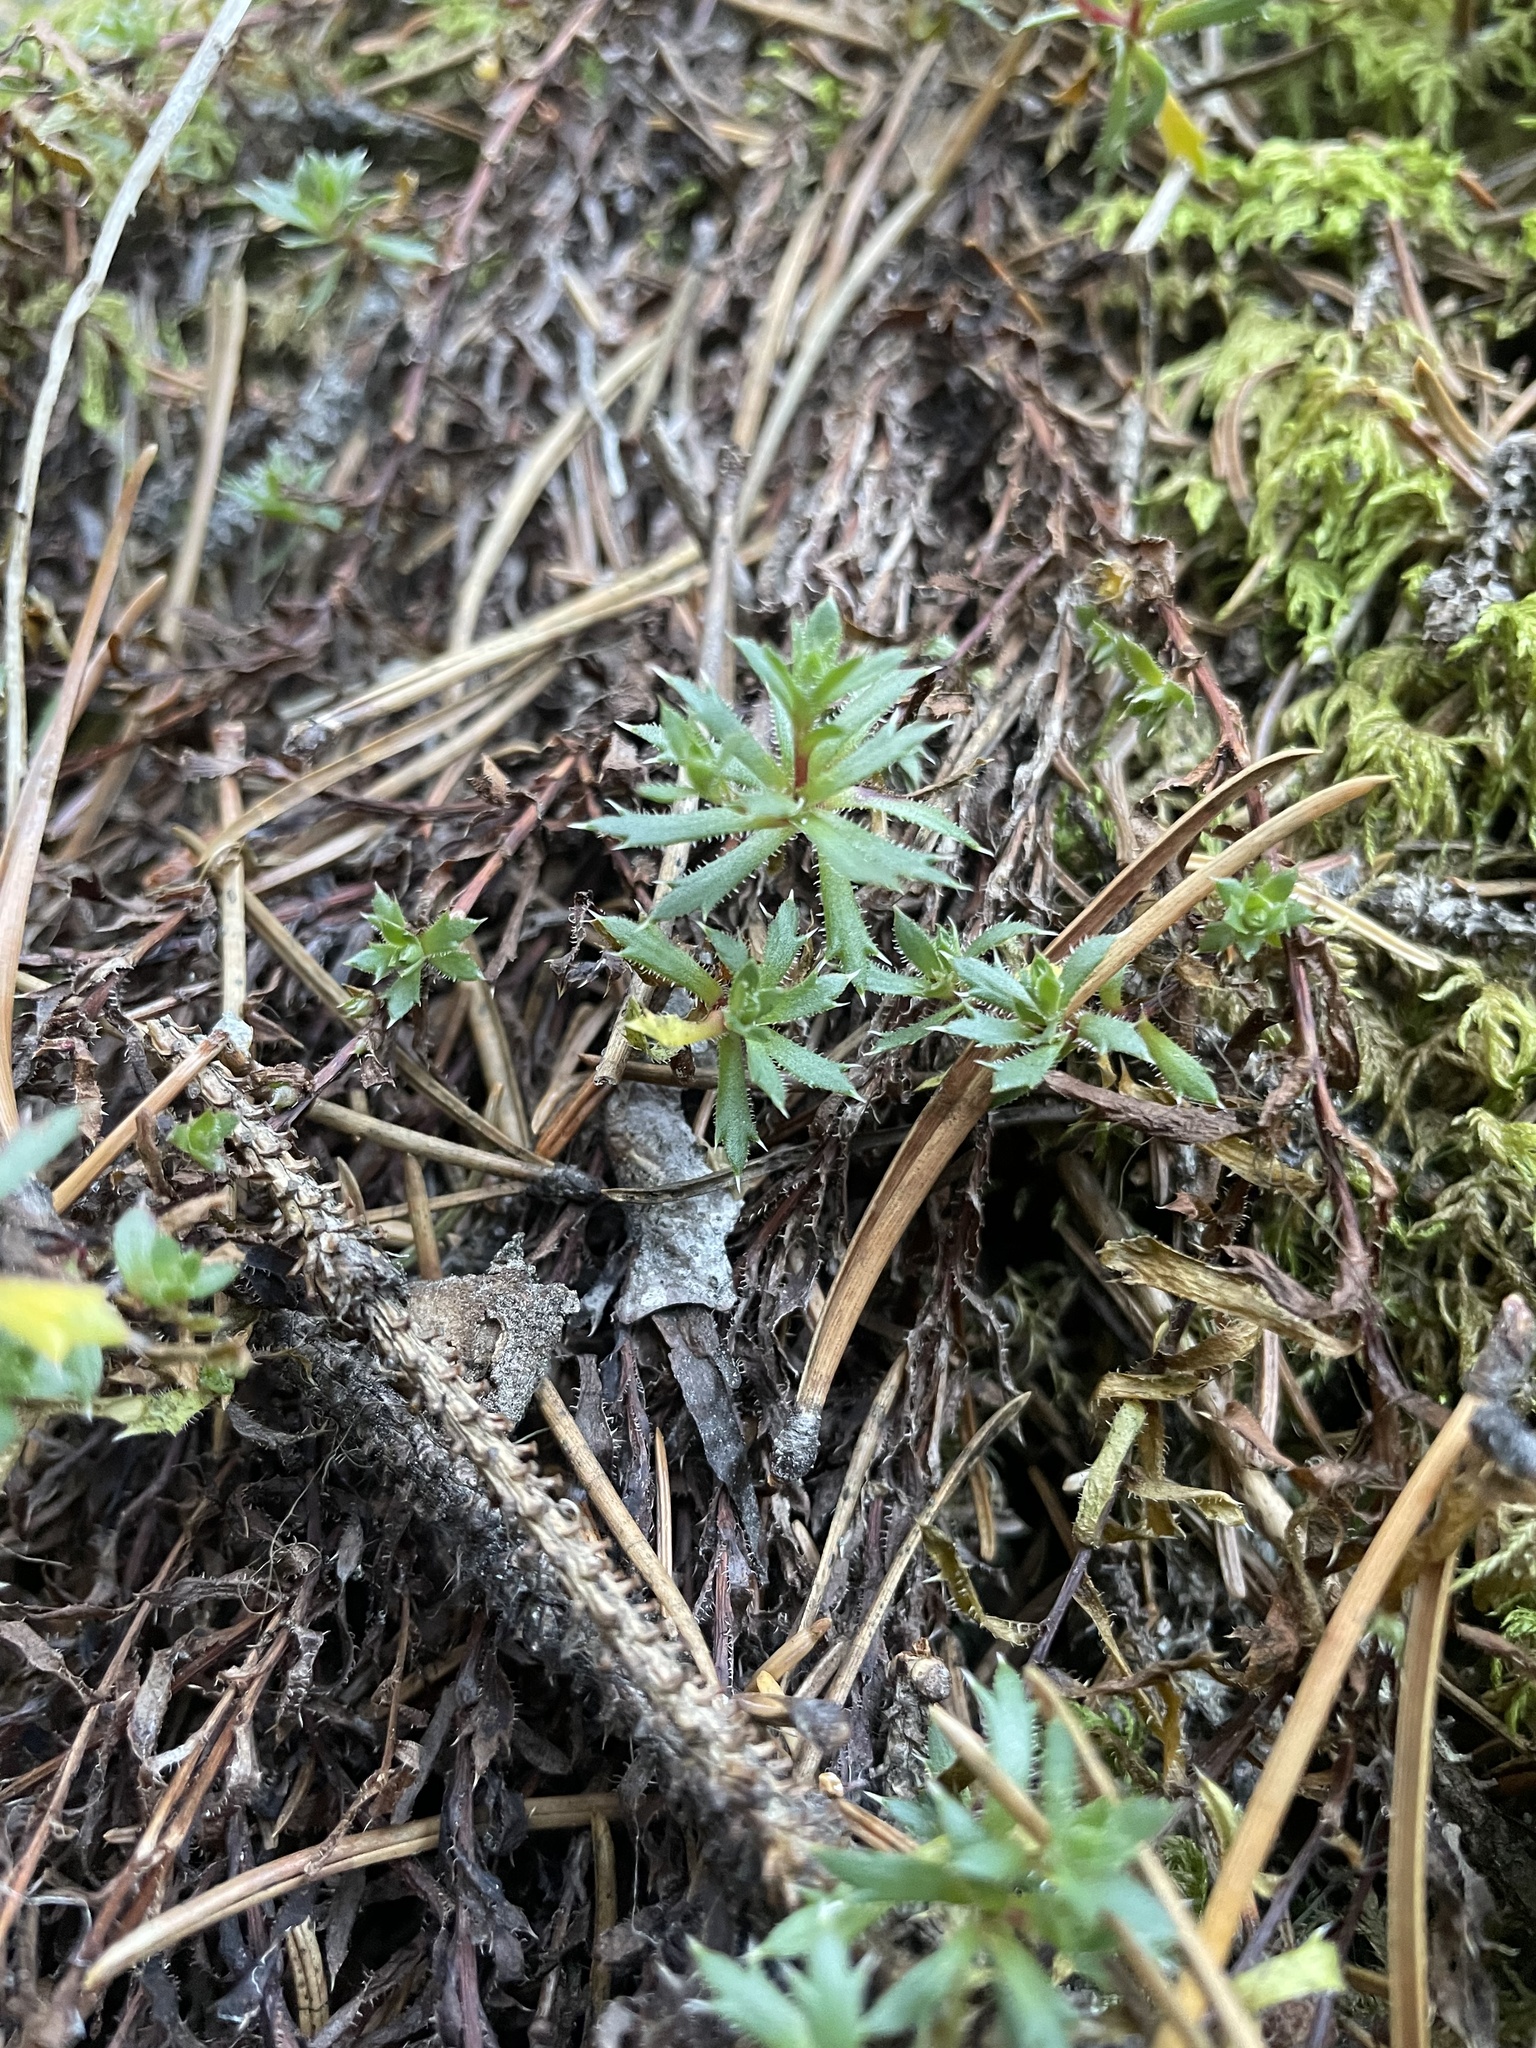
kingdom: Plantae
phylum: Tracheophyta
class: Magnoliopsida
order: Saxifragales
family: Saxifragaceae
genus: Saxifraga
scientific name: Saxifraga tricuspidata
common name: Prickly saxifrage
